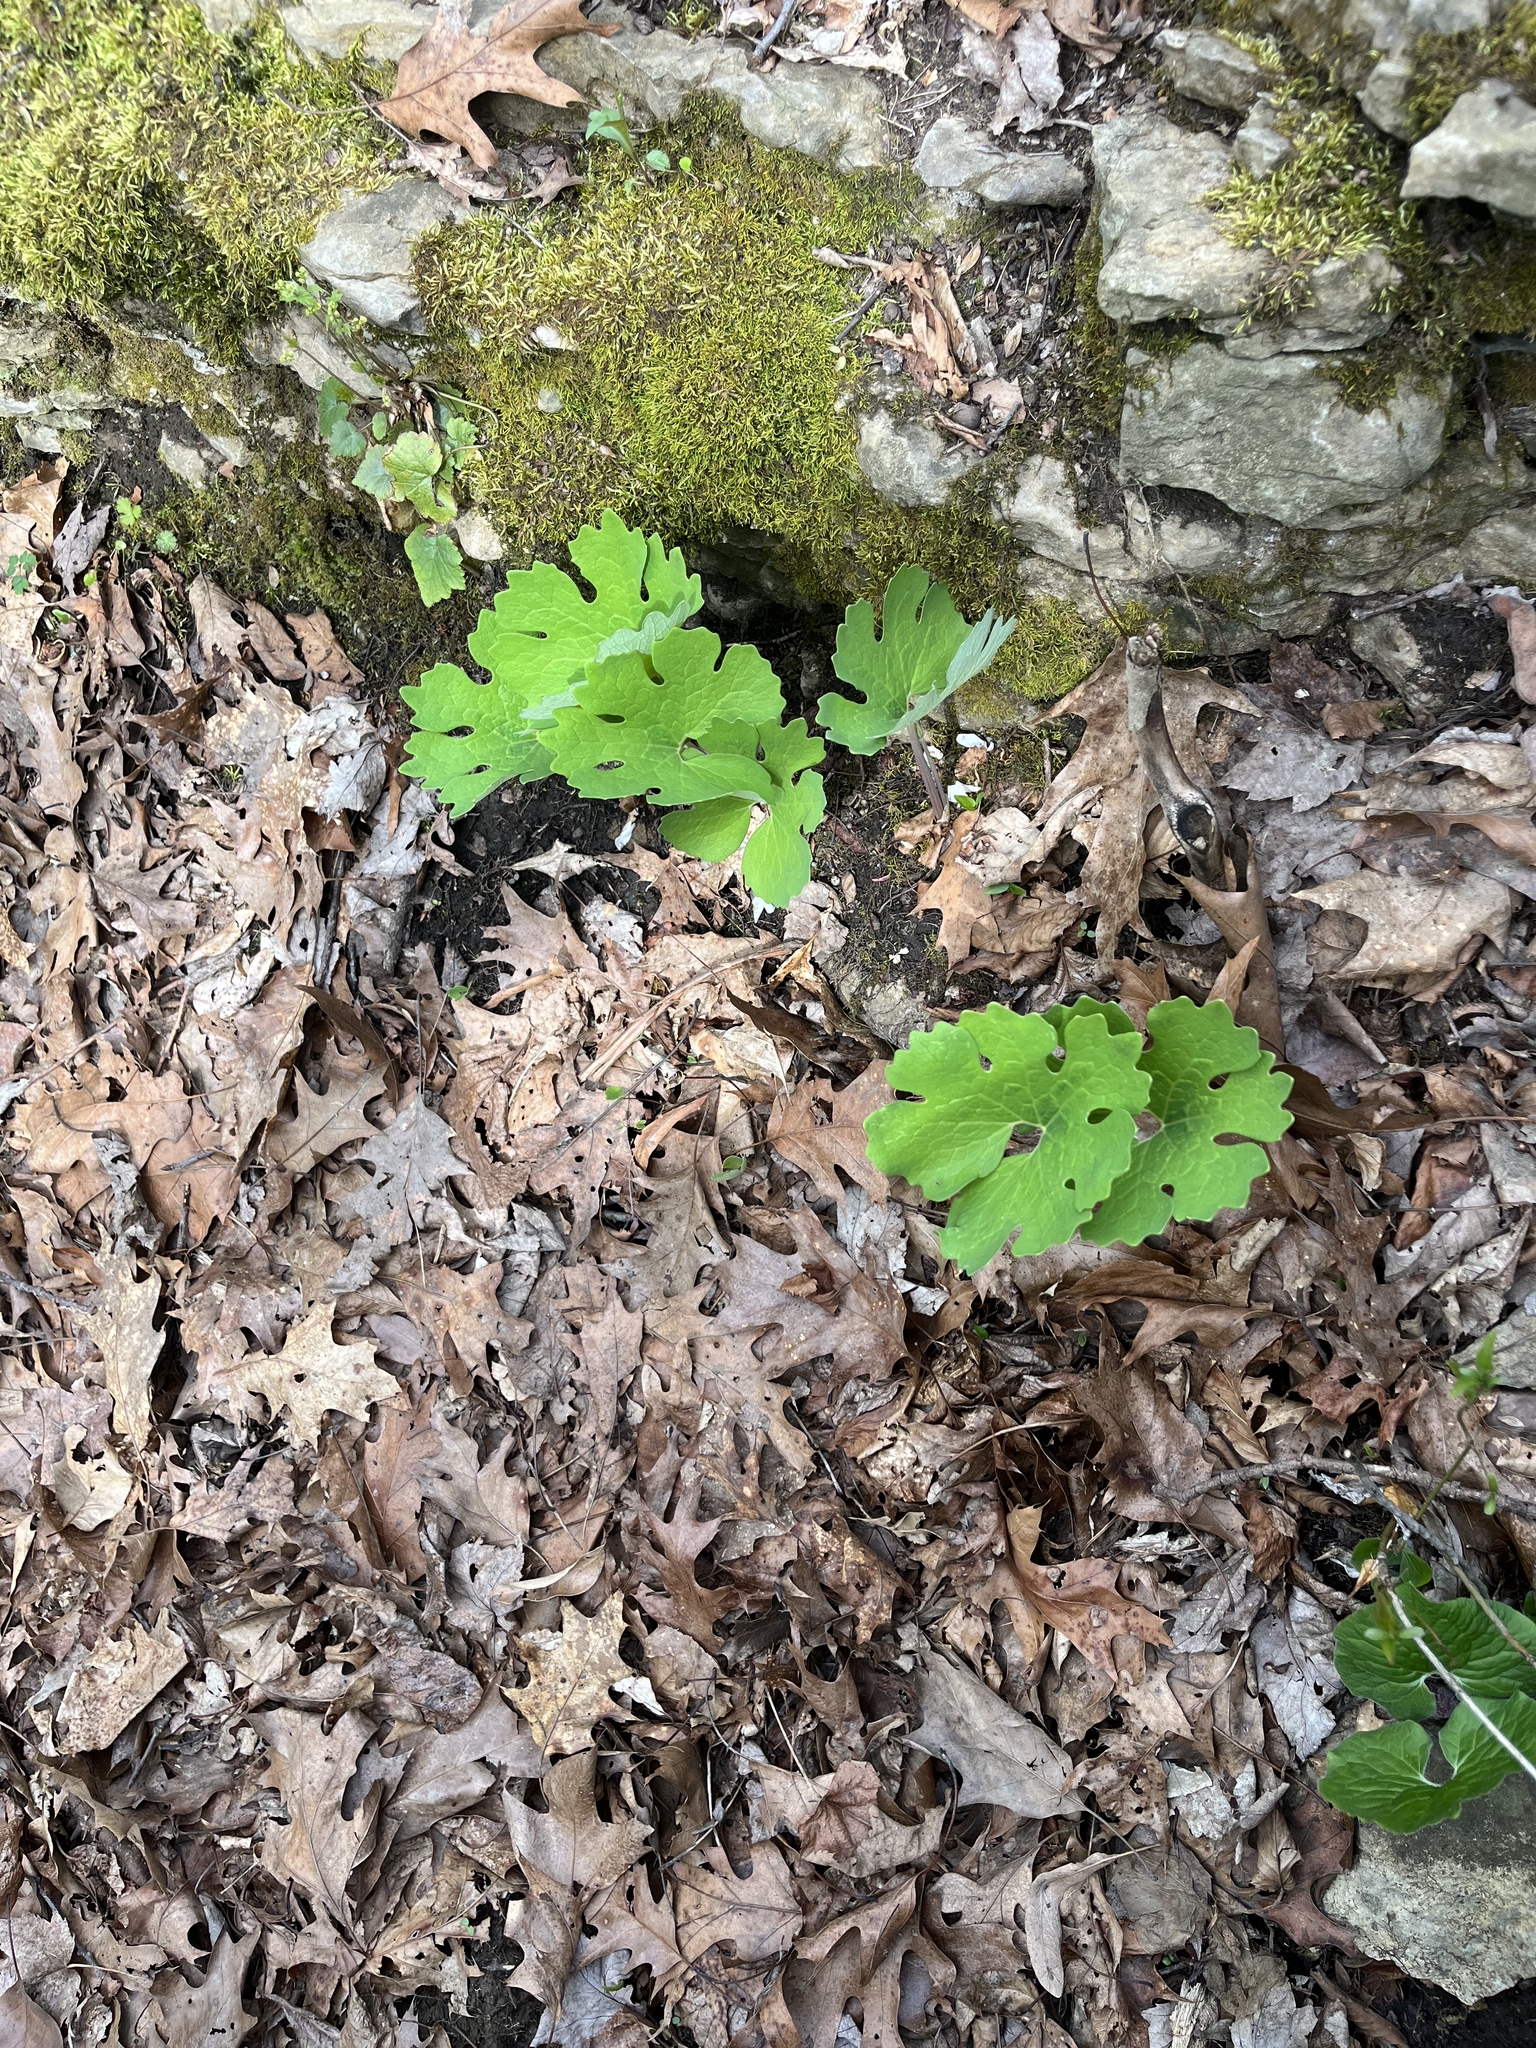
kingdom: Plantae
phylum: Tracheophyta
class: Magnoliopsida
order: Ranunculales
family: Papaveraceae
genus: Sanguinaria
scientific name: Sanguinaria canadensis
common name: Bloodroot
